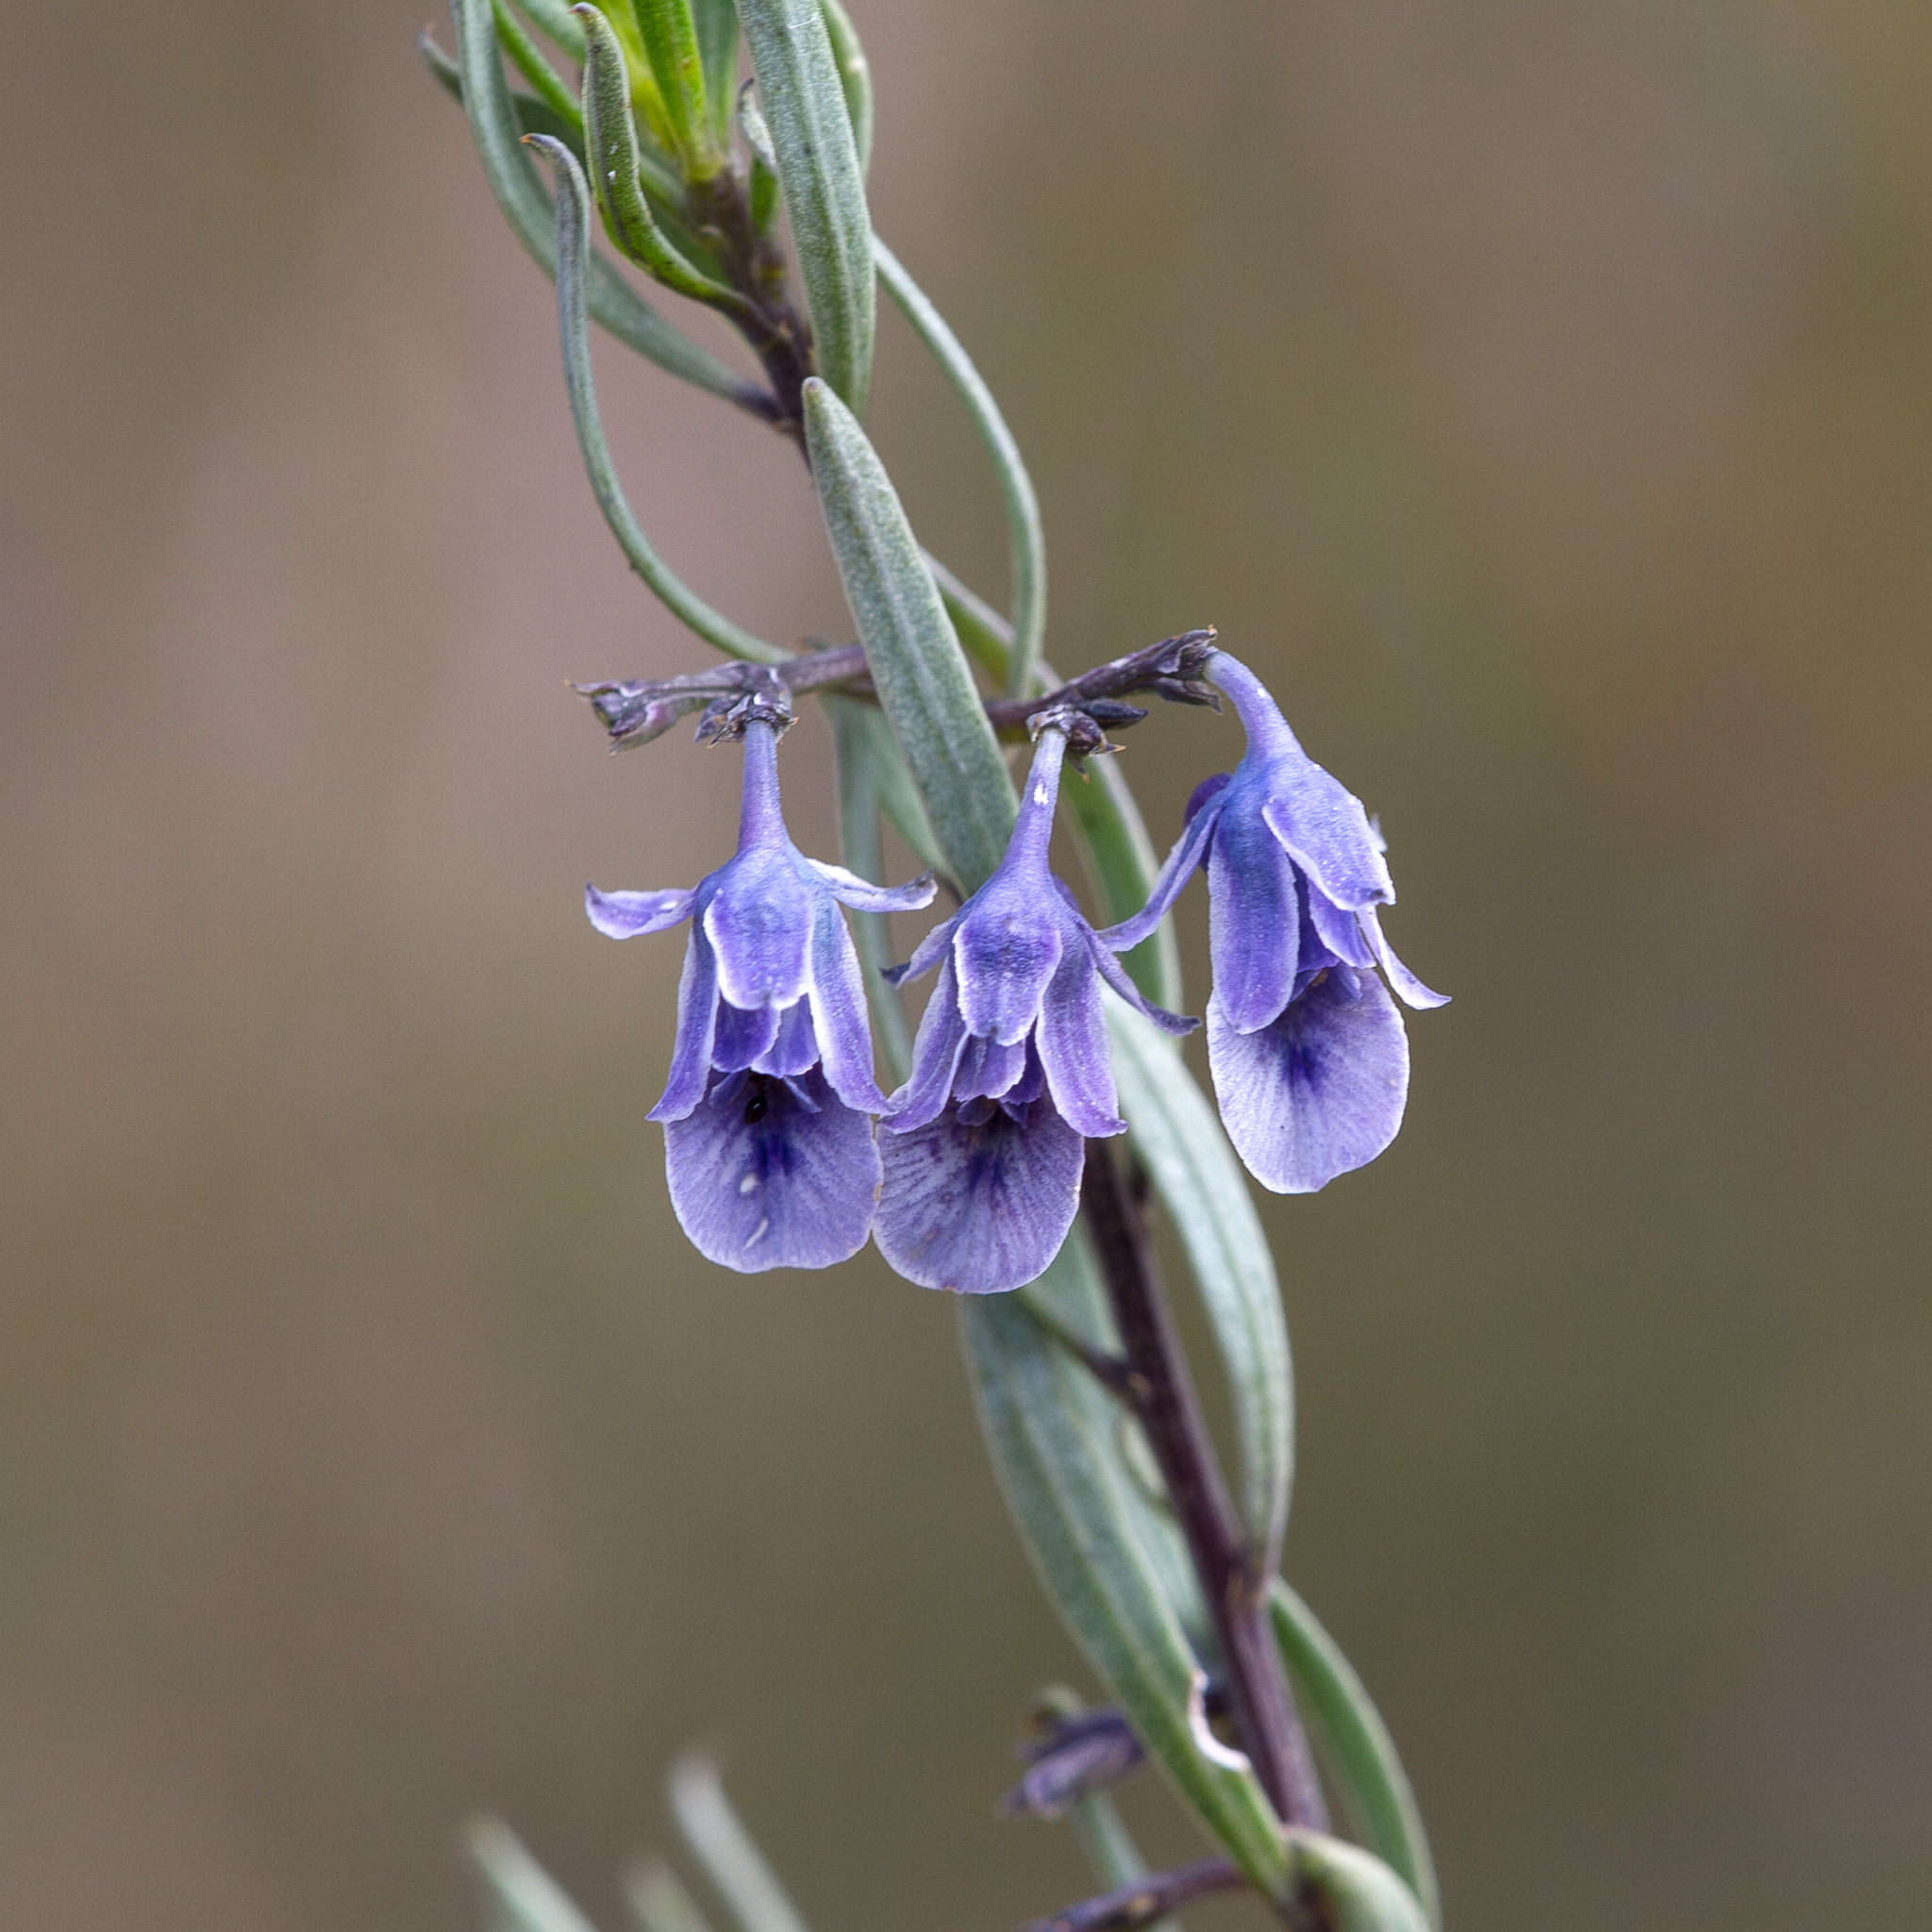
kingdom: Plantae
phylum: Tracheophyta
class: Magnoliopsida
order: Malpighiales
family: Violaceae
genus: Pigea
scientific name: Pigea floribunda
